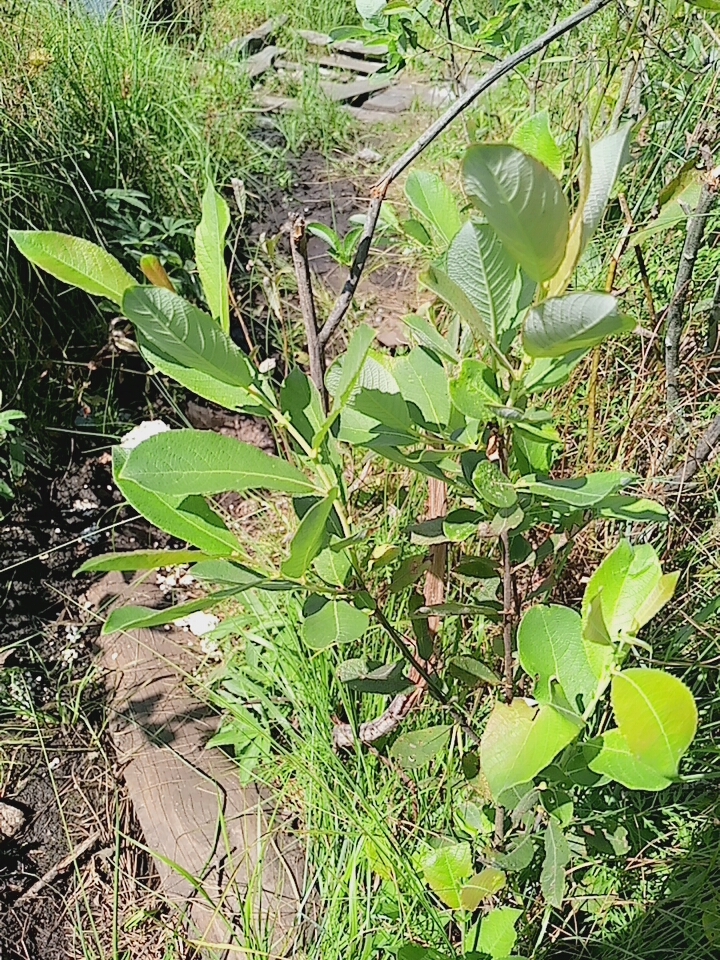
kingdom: Plantae
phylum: Tracheophyta
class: Magnoliopsida
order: Malpighiales
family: Salicaceae
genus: Salix
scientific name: Salix cinerea
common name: Common sallow
